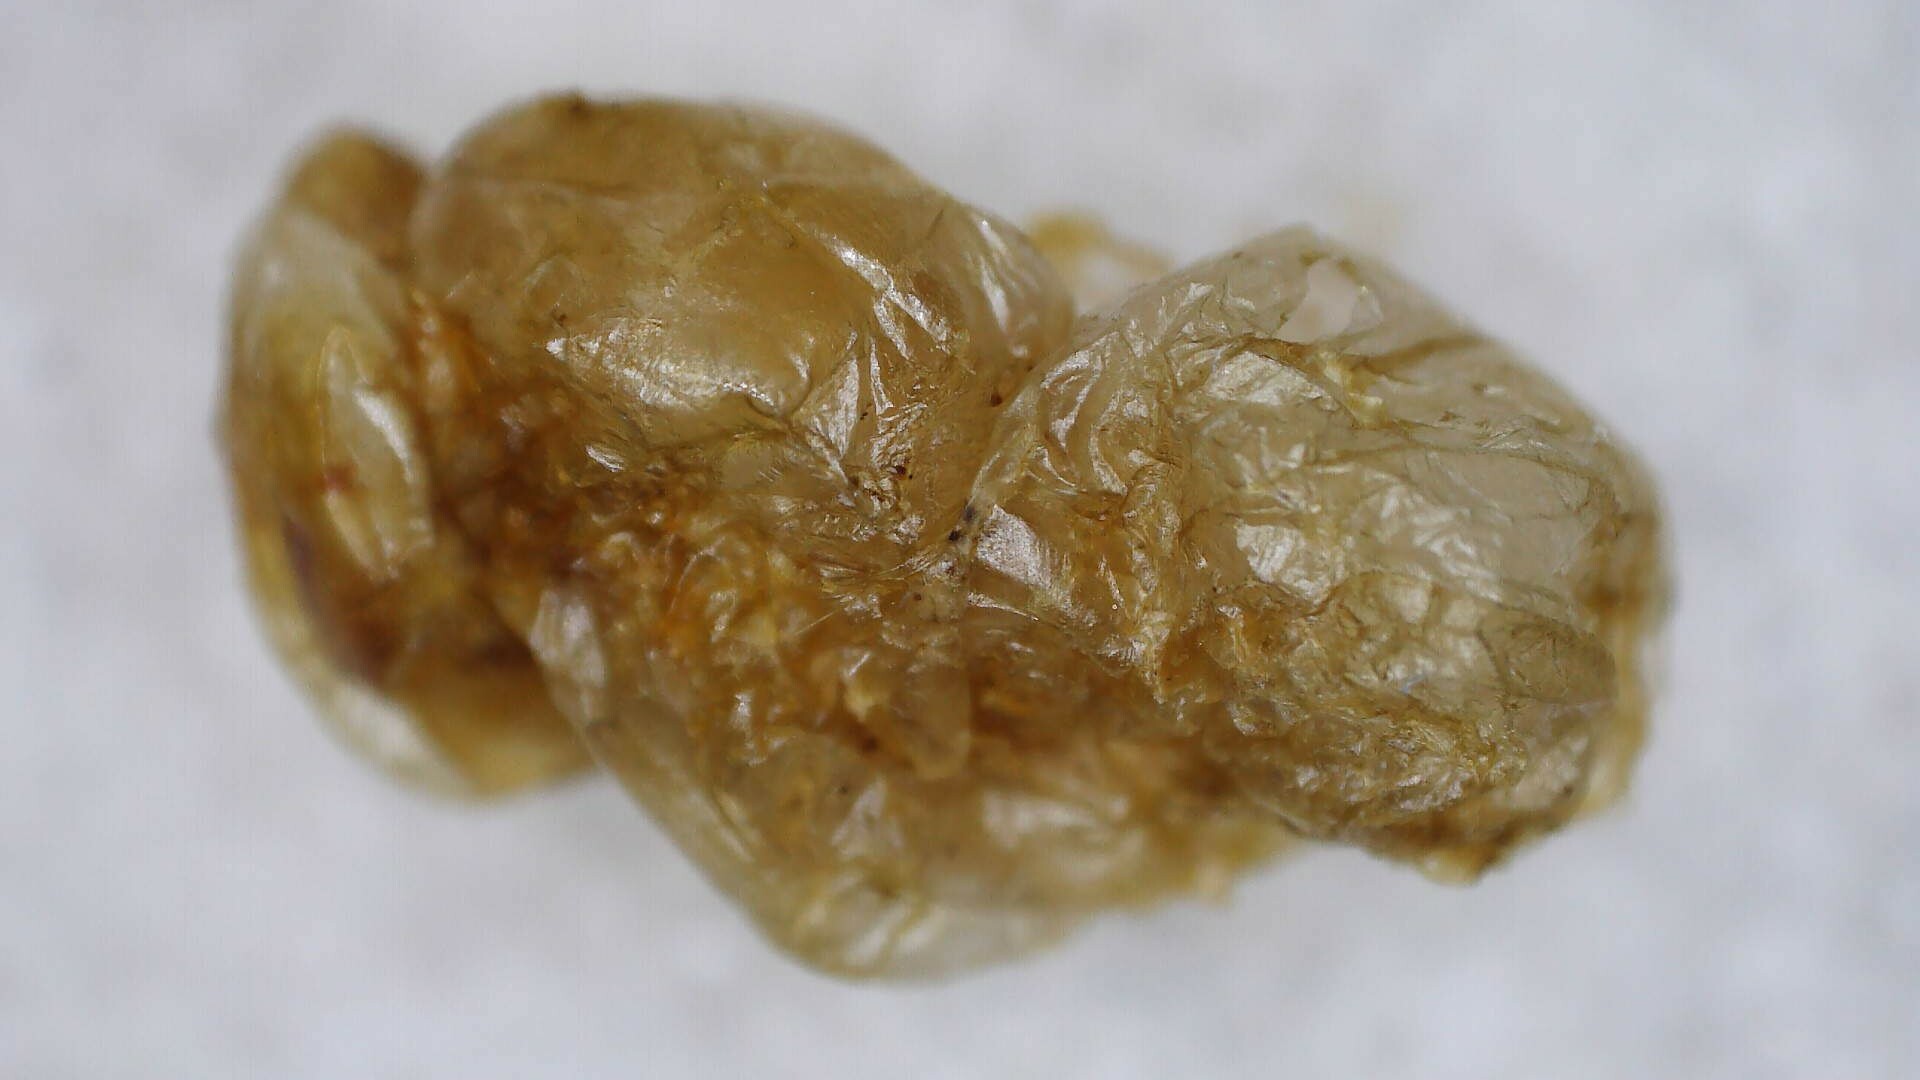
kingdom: Animalia
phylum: Arthropoda
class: Insecta
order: Hymenoptera
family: Vespidae
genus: Dolichovespula
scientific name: Dolichovespula maculata
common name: Bald-faced hornet
